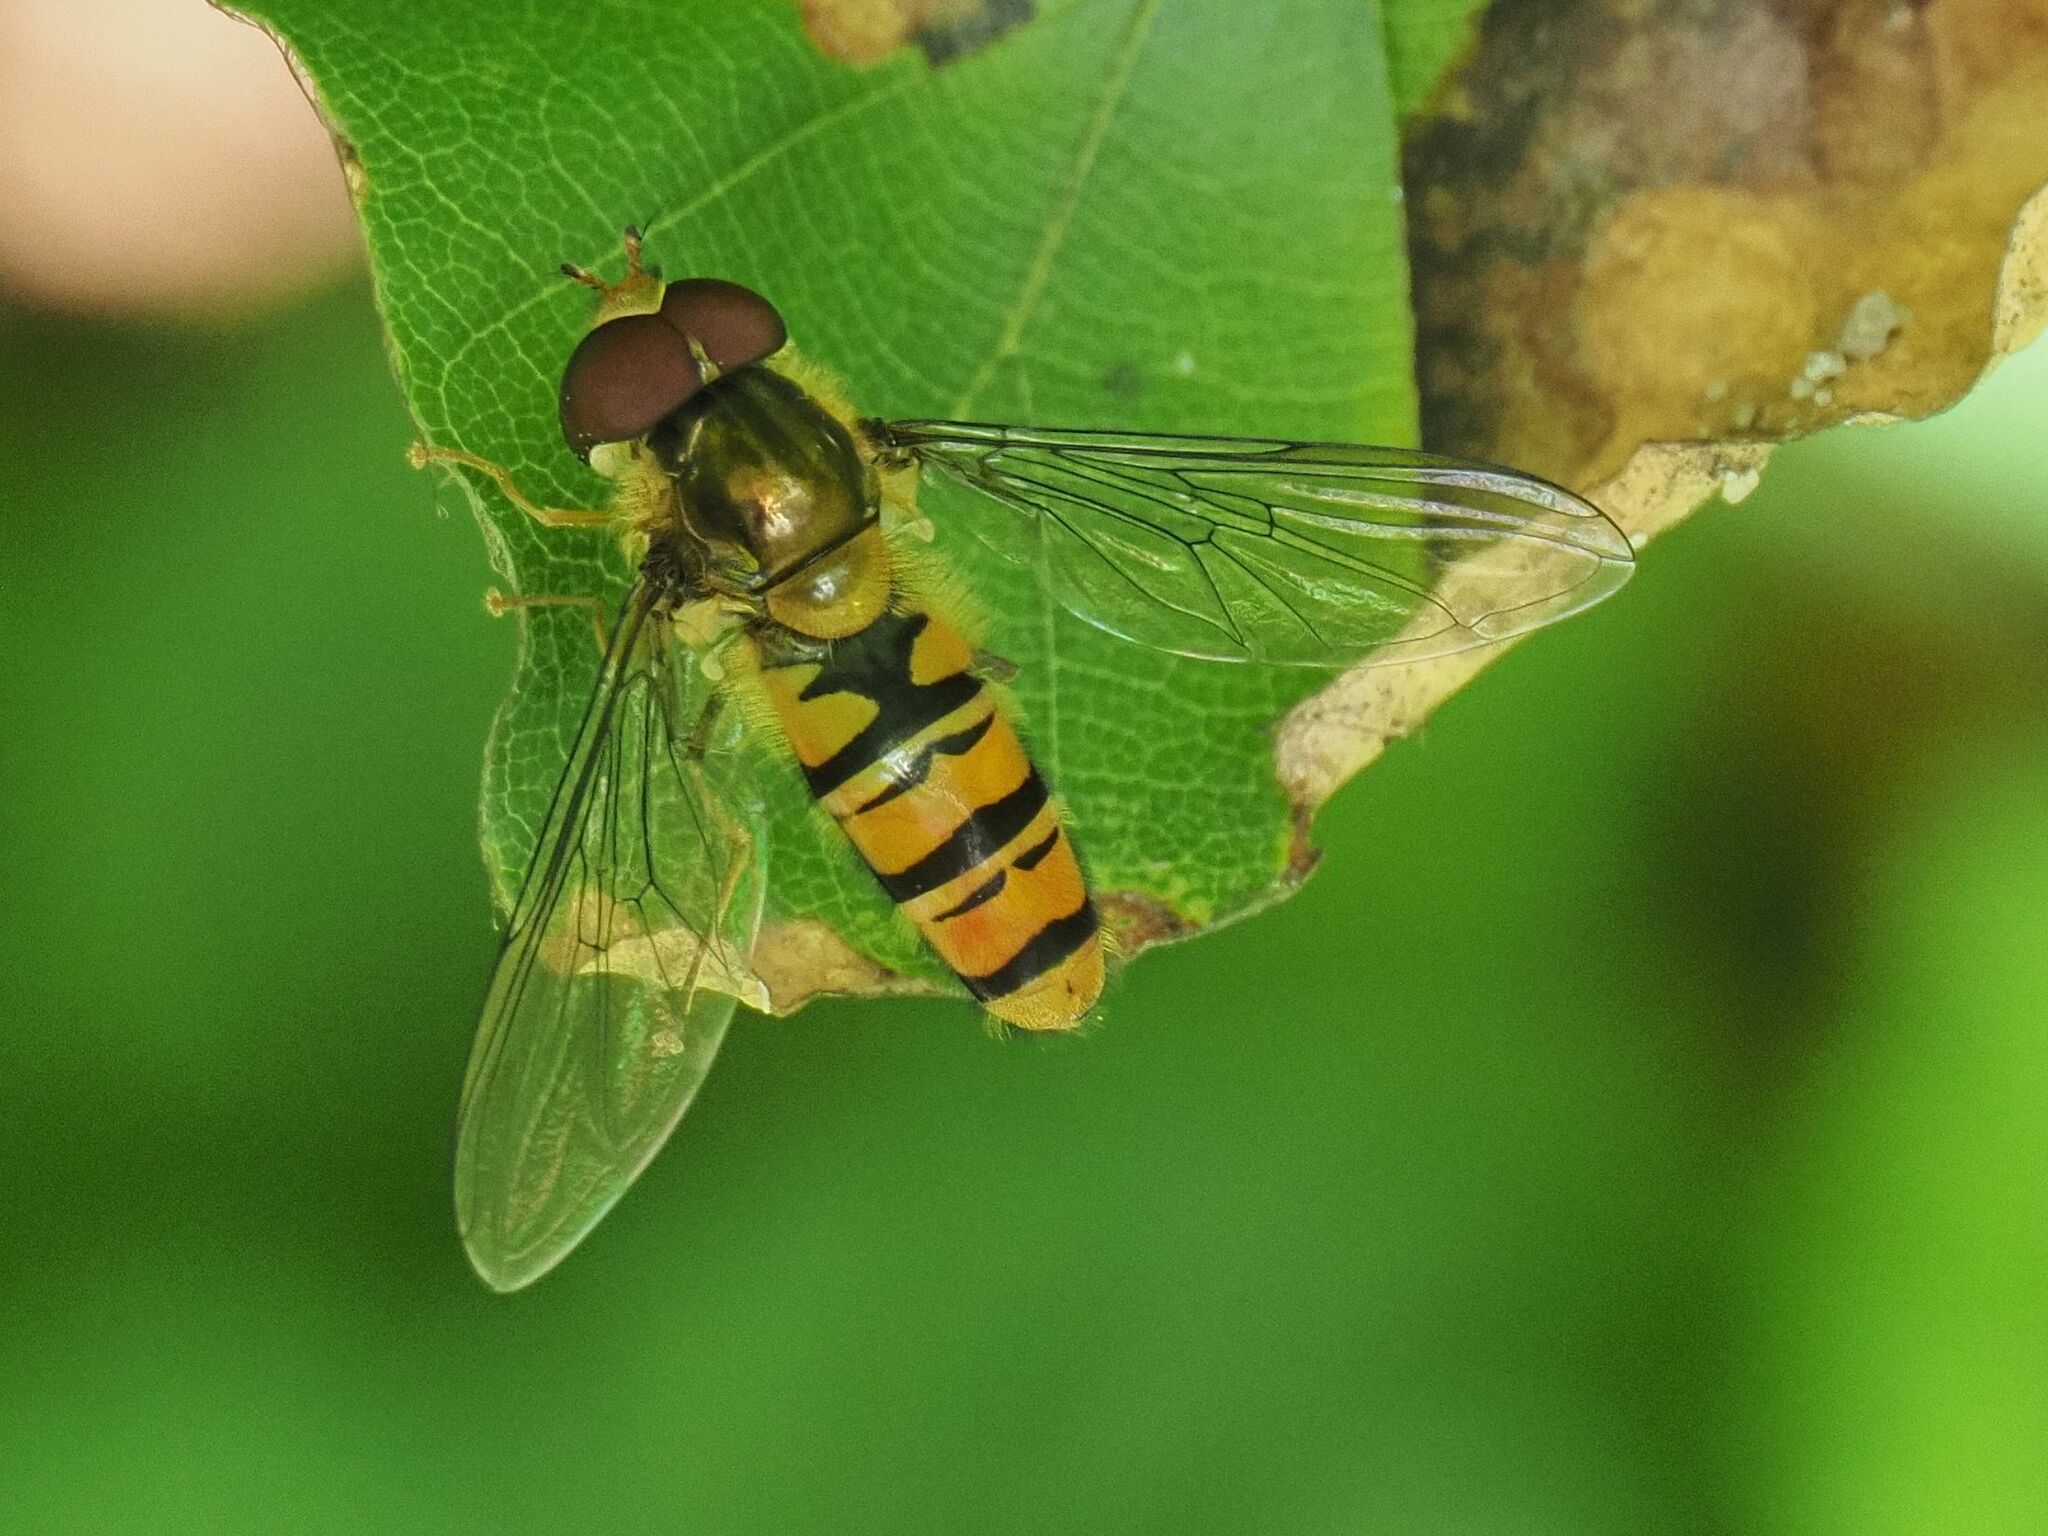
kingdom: Animalia
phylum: Arthropoda
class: Insecta
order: Diptera
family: Syrphidae
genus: Episyrphus
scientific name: Episyrphus balteatus
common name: Marmalade hoverfly
